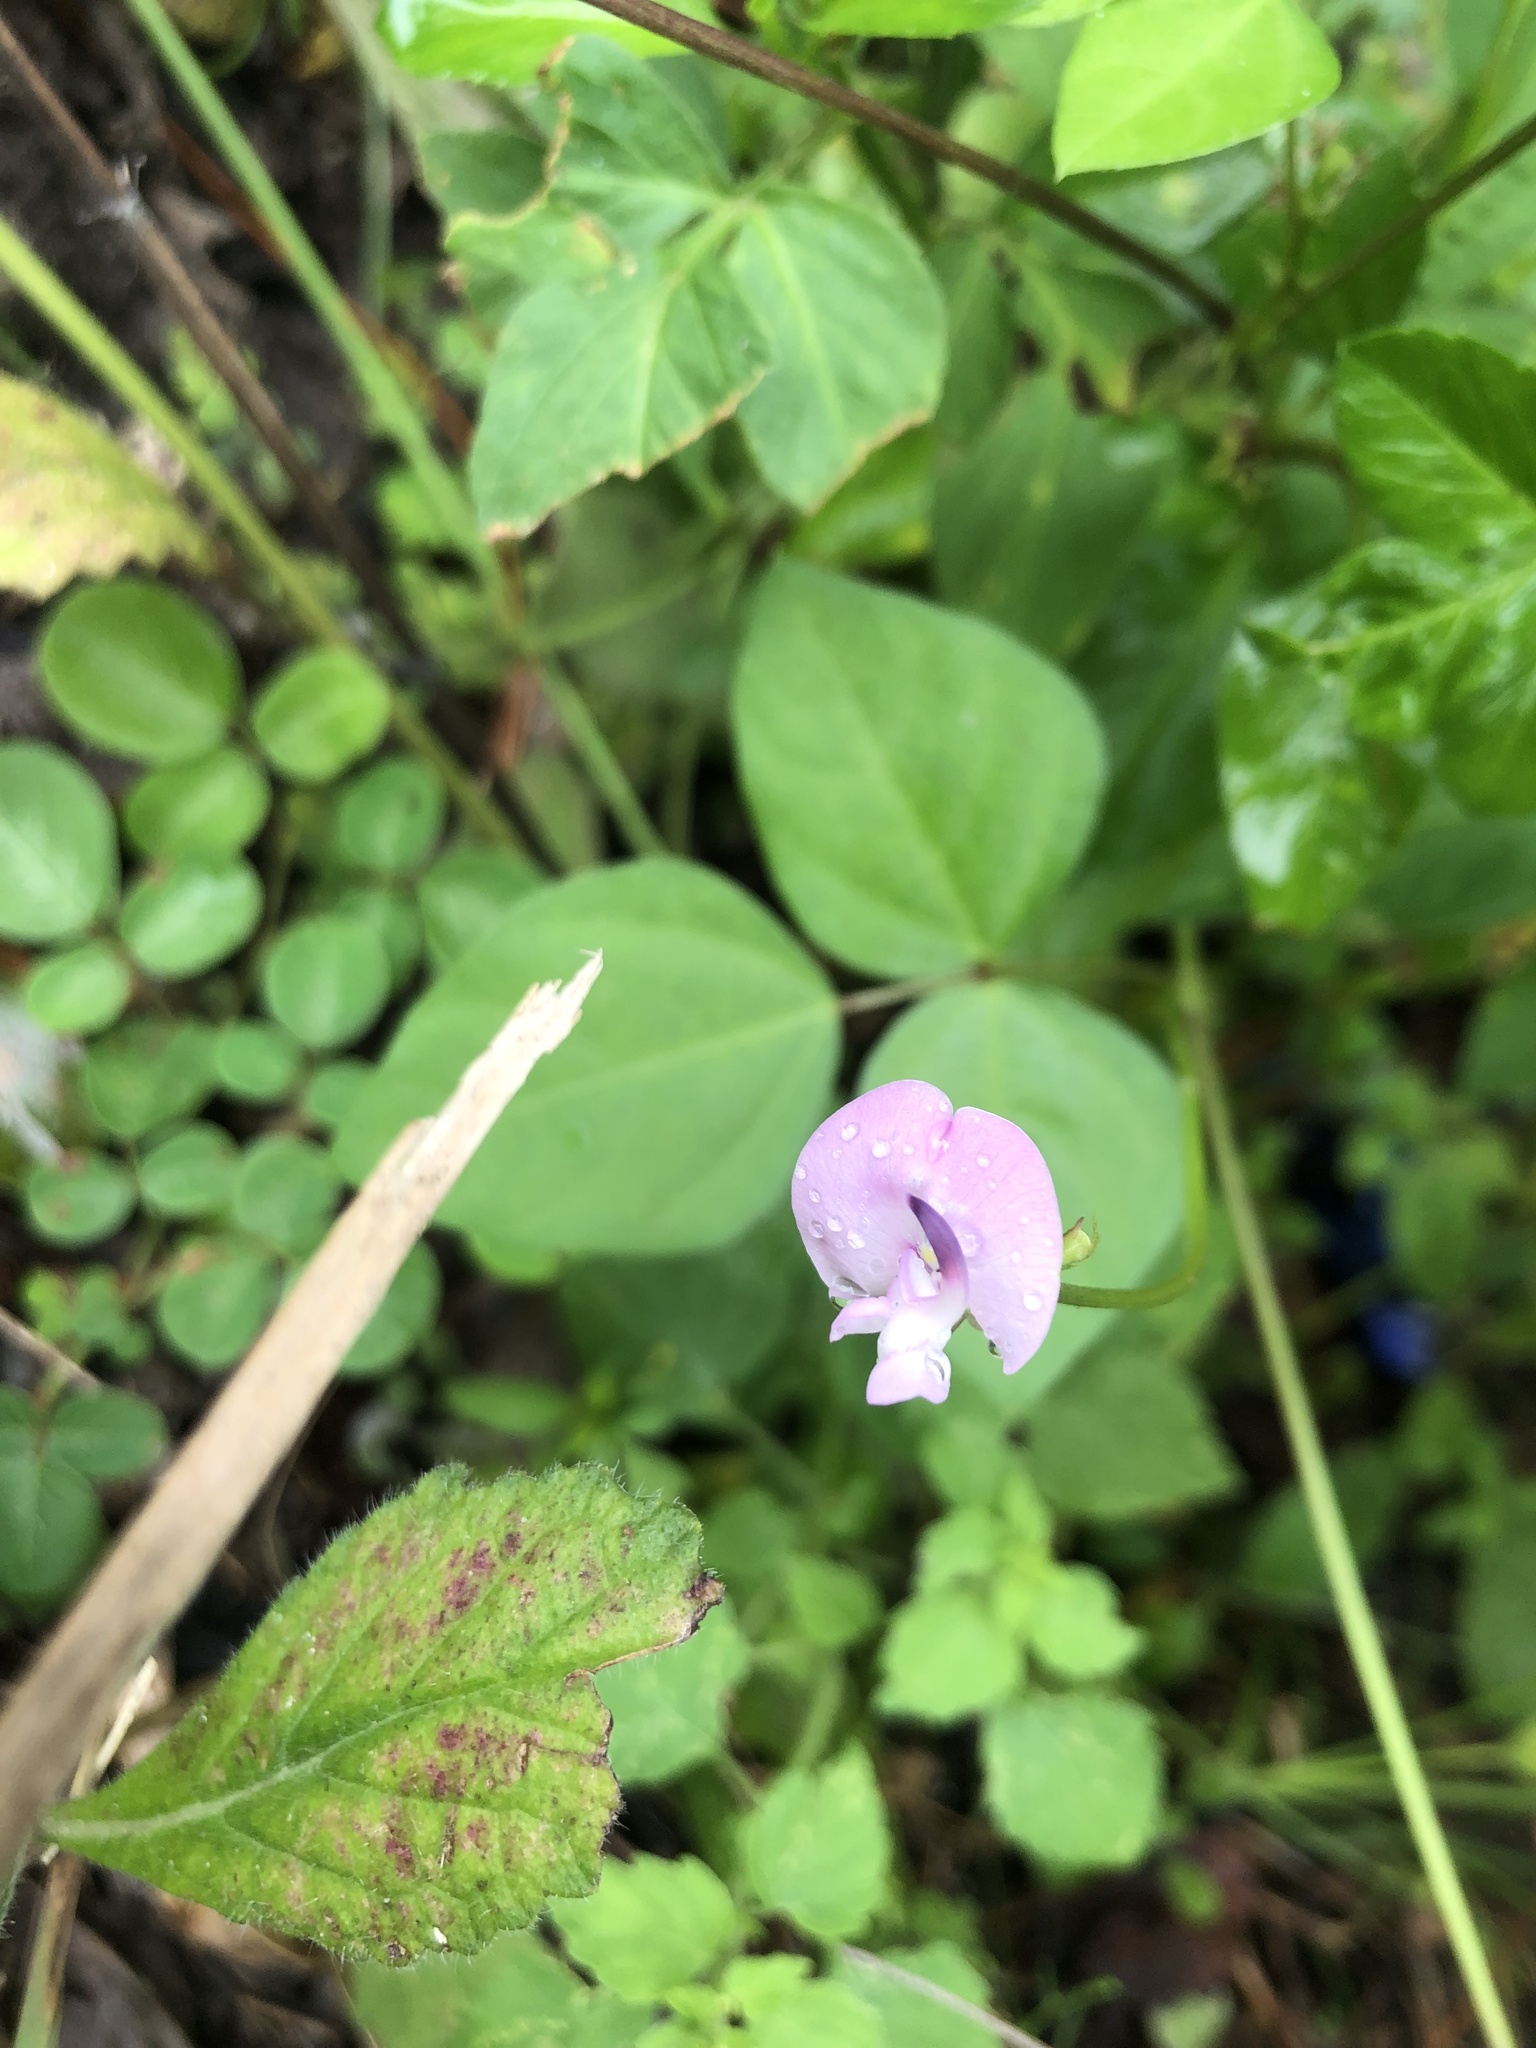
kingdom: Plantae
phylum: Tracheophyta
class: Magnoliopsida
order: Fabales
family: Fabaceae
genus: Strophostyles
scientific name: Strophostyles helvola
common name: Trailing wild bean
